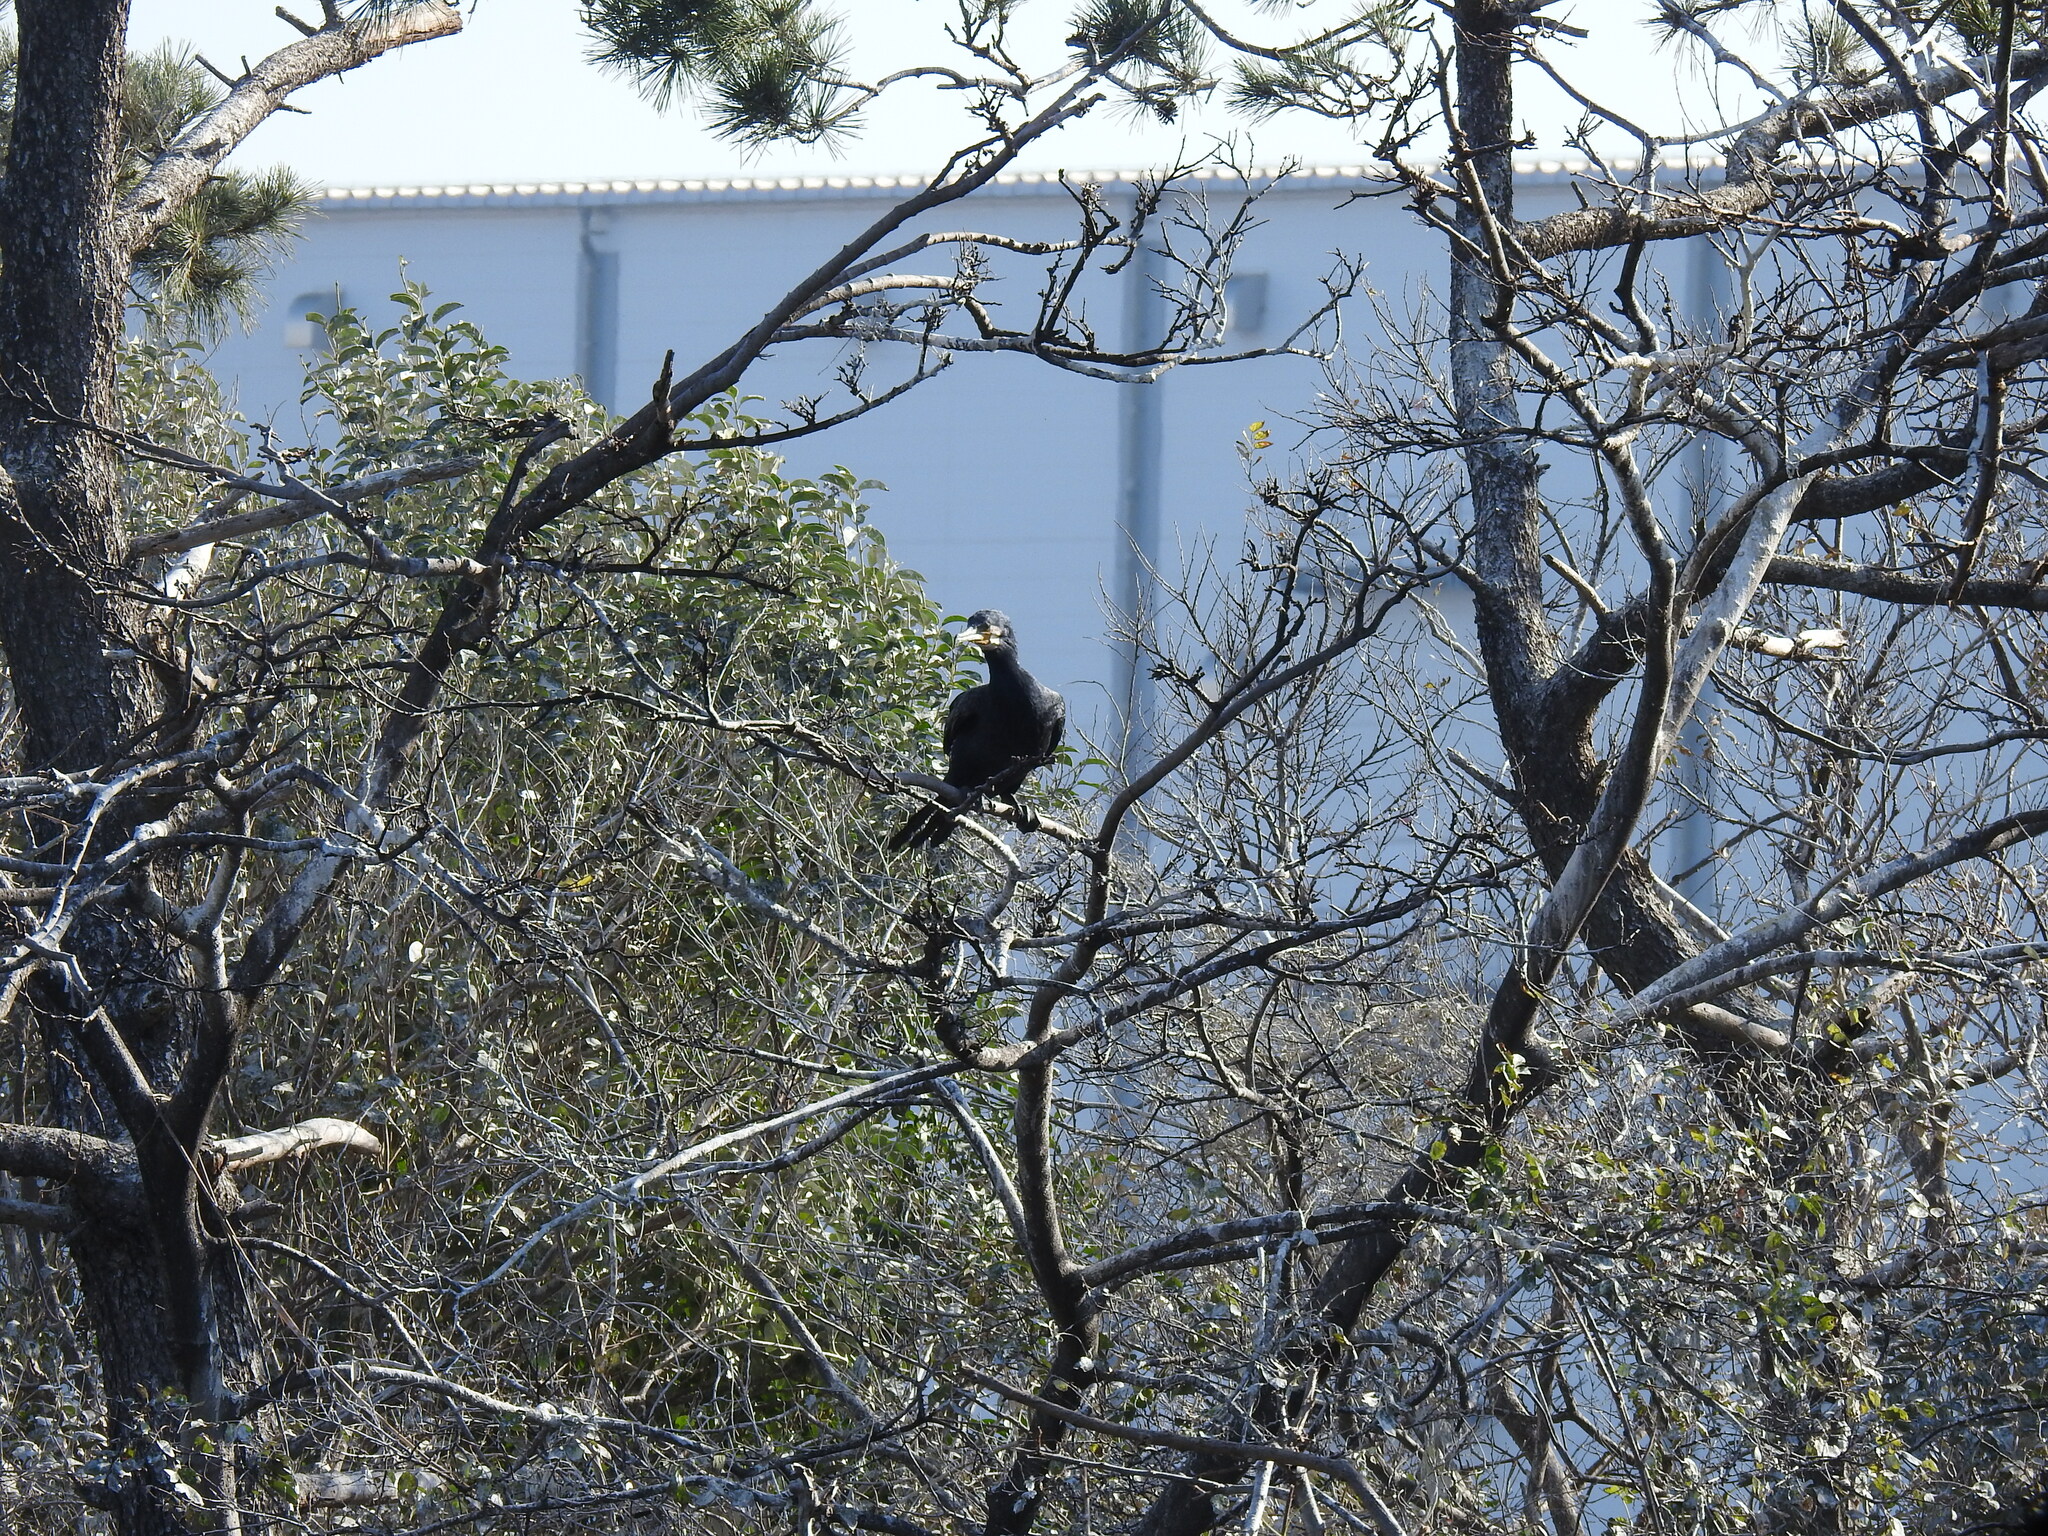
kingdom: Animalia
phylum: Chordata
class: Aves
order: Suliformes
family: Phalacrocoracidae
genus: Phalacrocorax
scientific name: Phalacrocorax carbo
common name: Great cormorant
